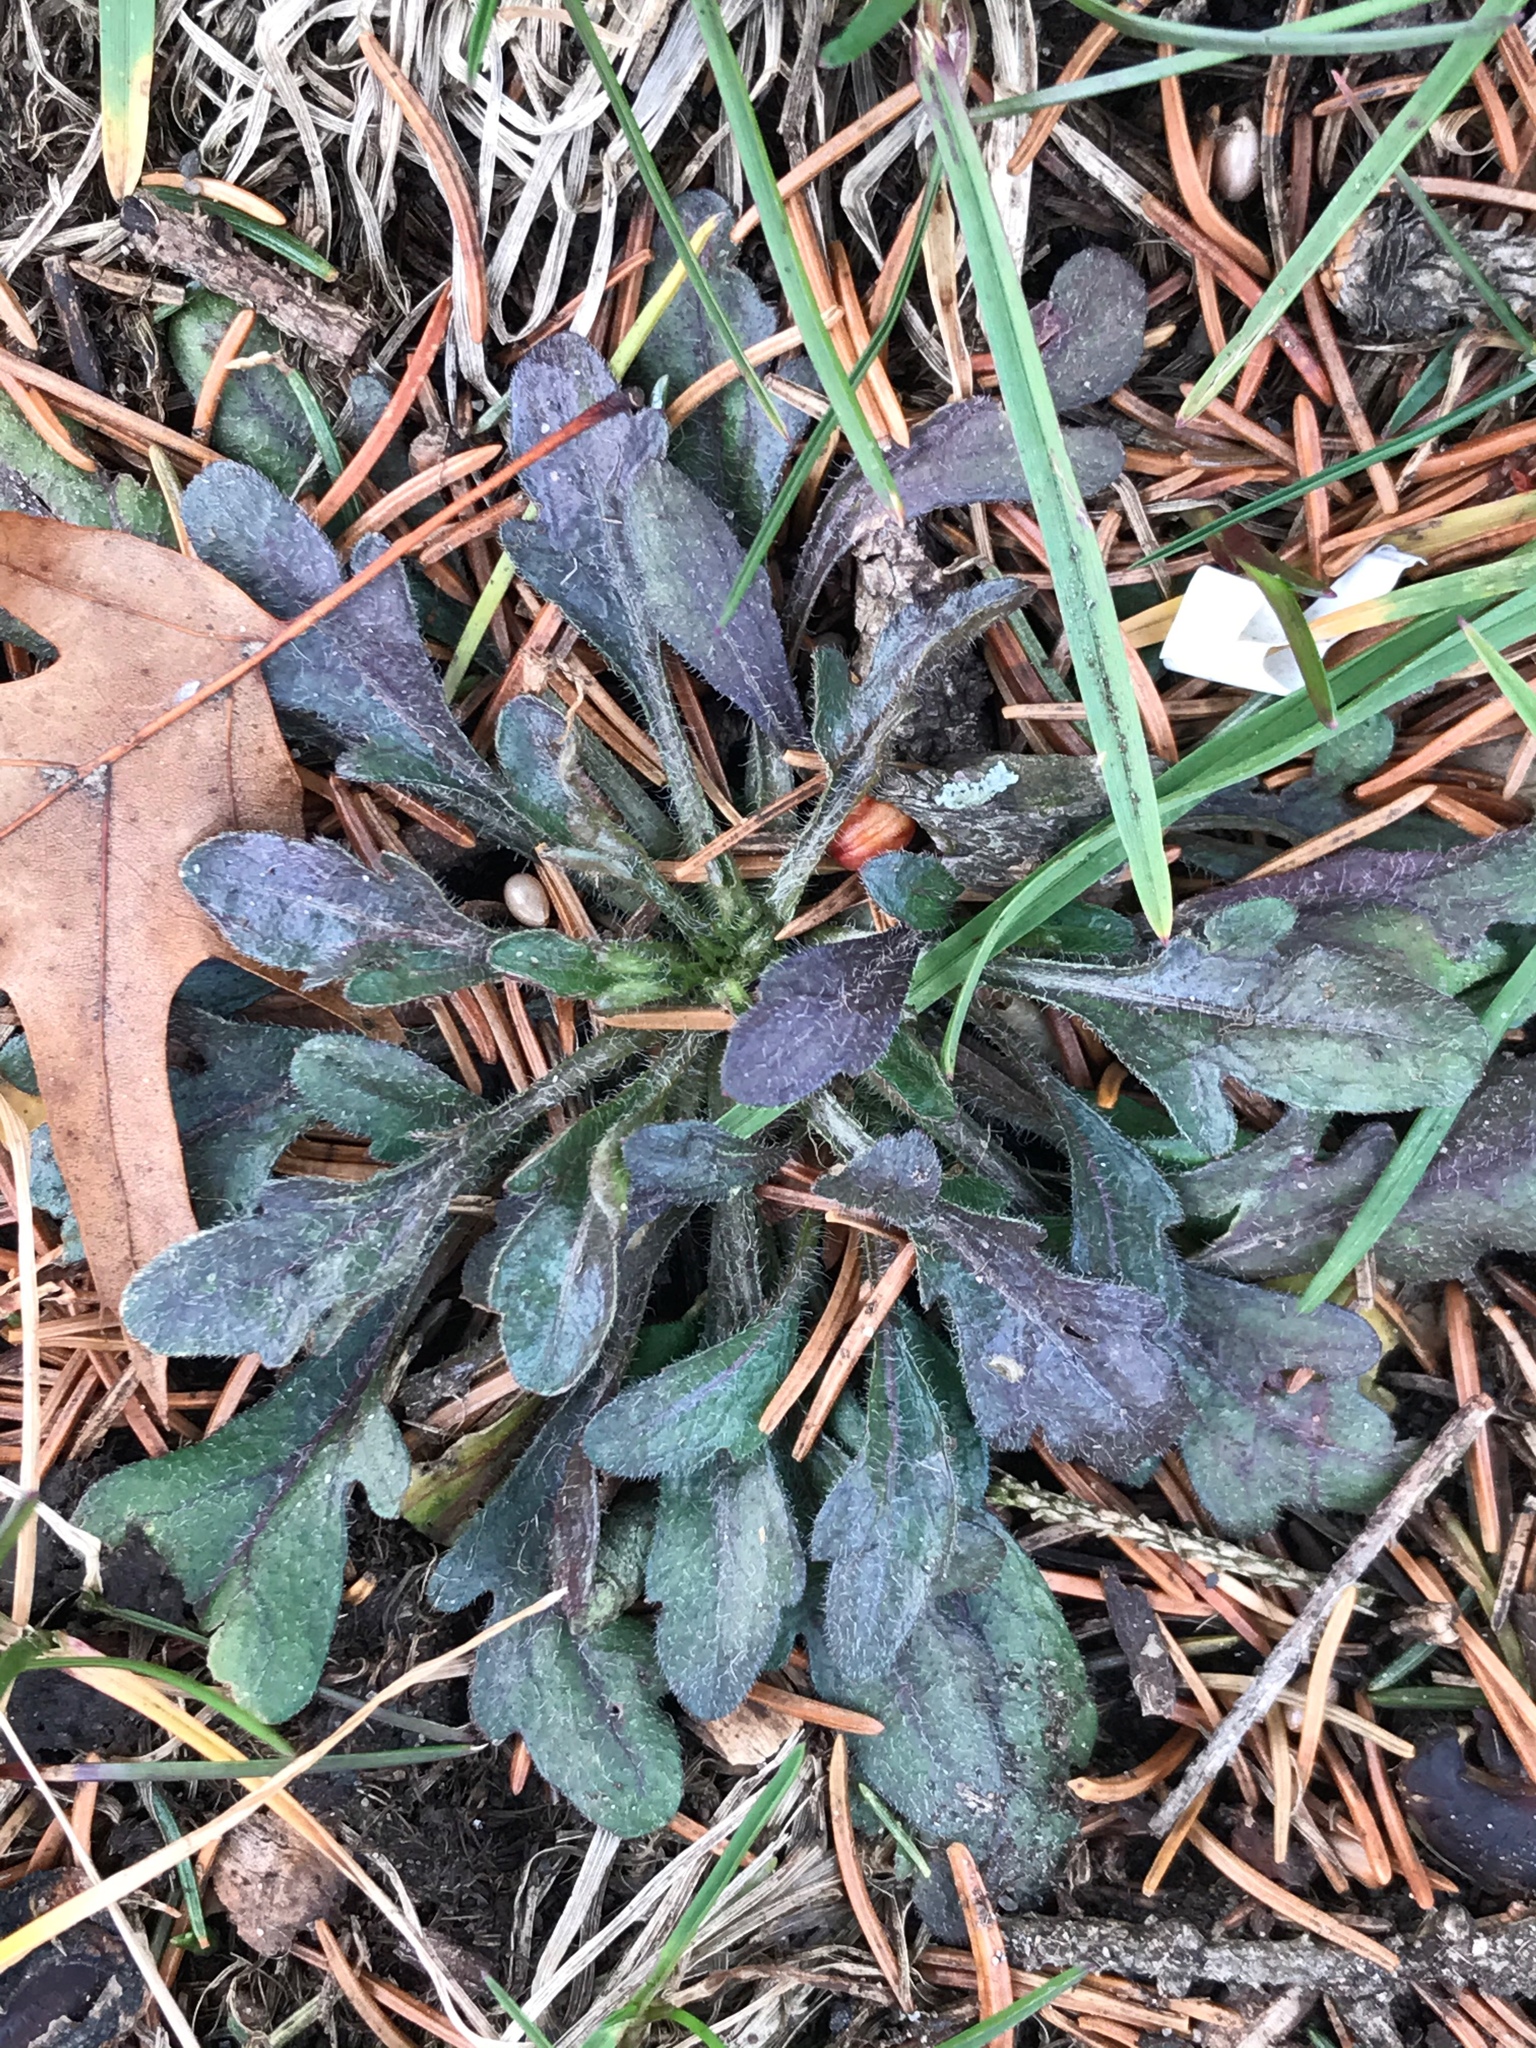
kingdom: Plantae
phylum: Tracheophyta
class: Magnoliopsida
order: Asterales
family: Asteraceae
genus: Erigeron
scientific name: Erigeron canadensis
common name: Canadian fleabane
